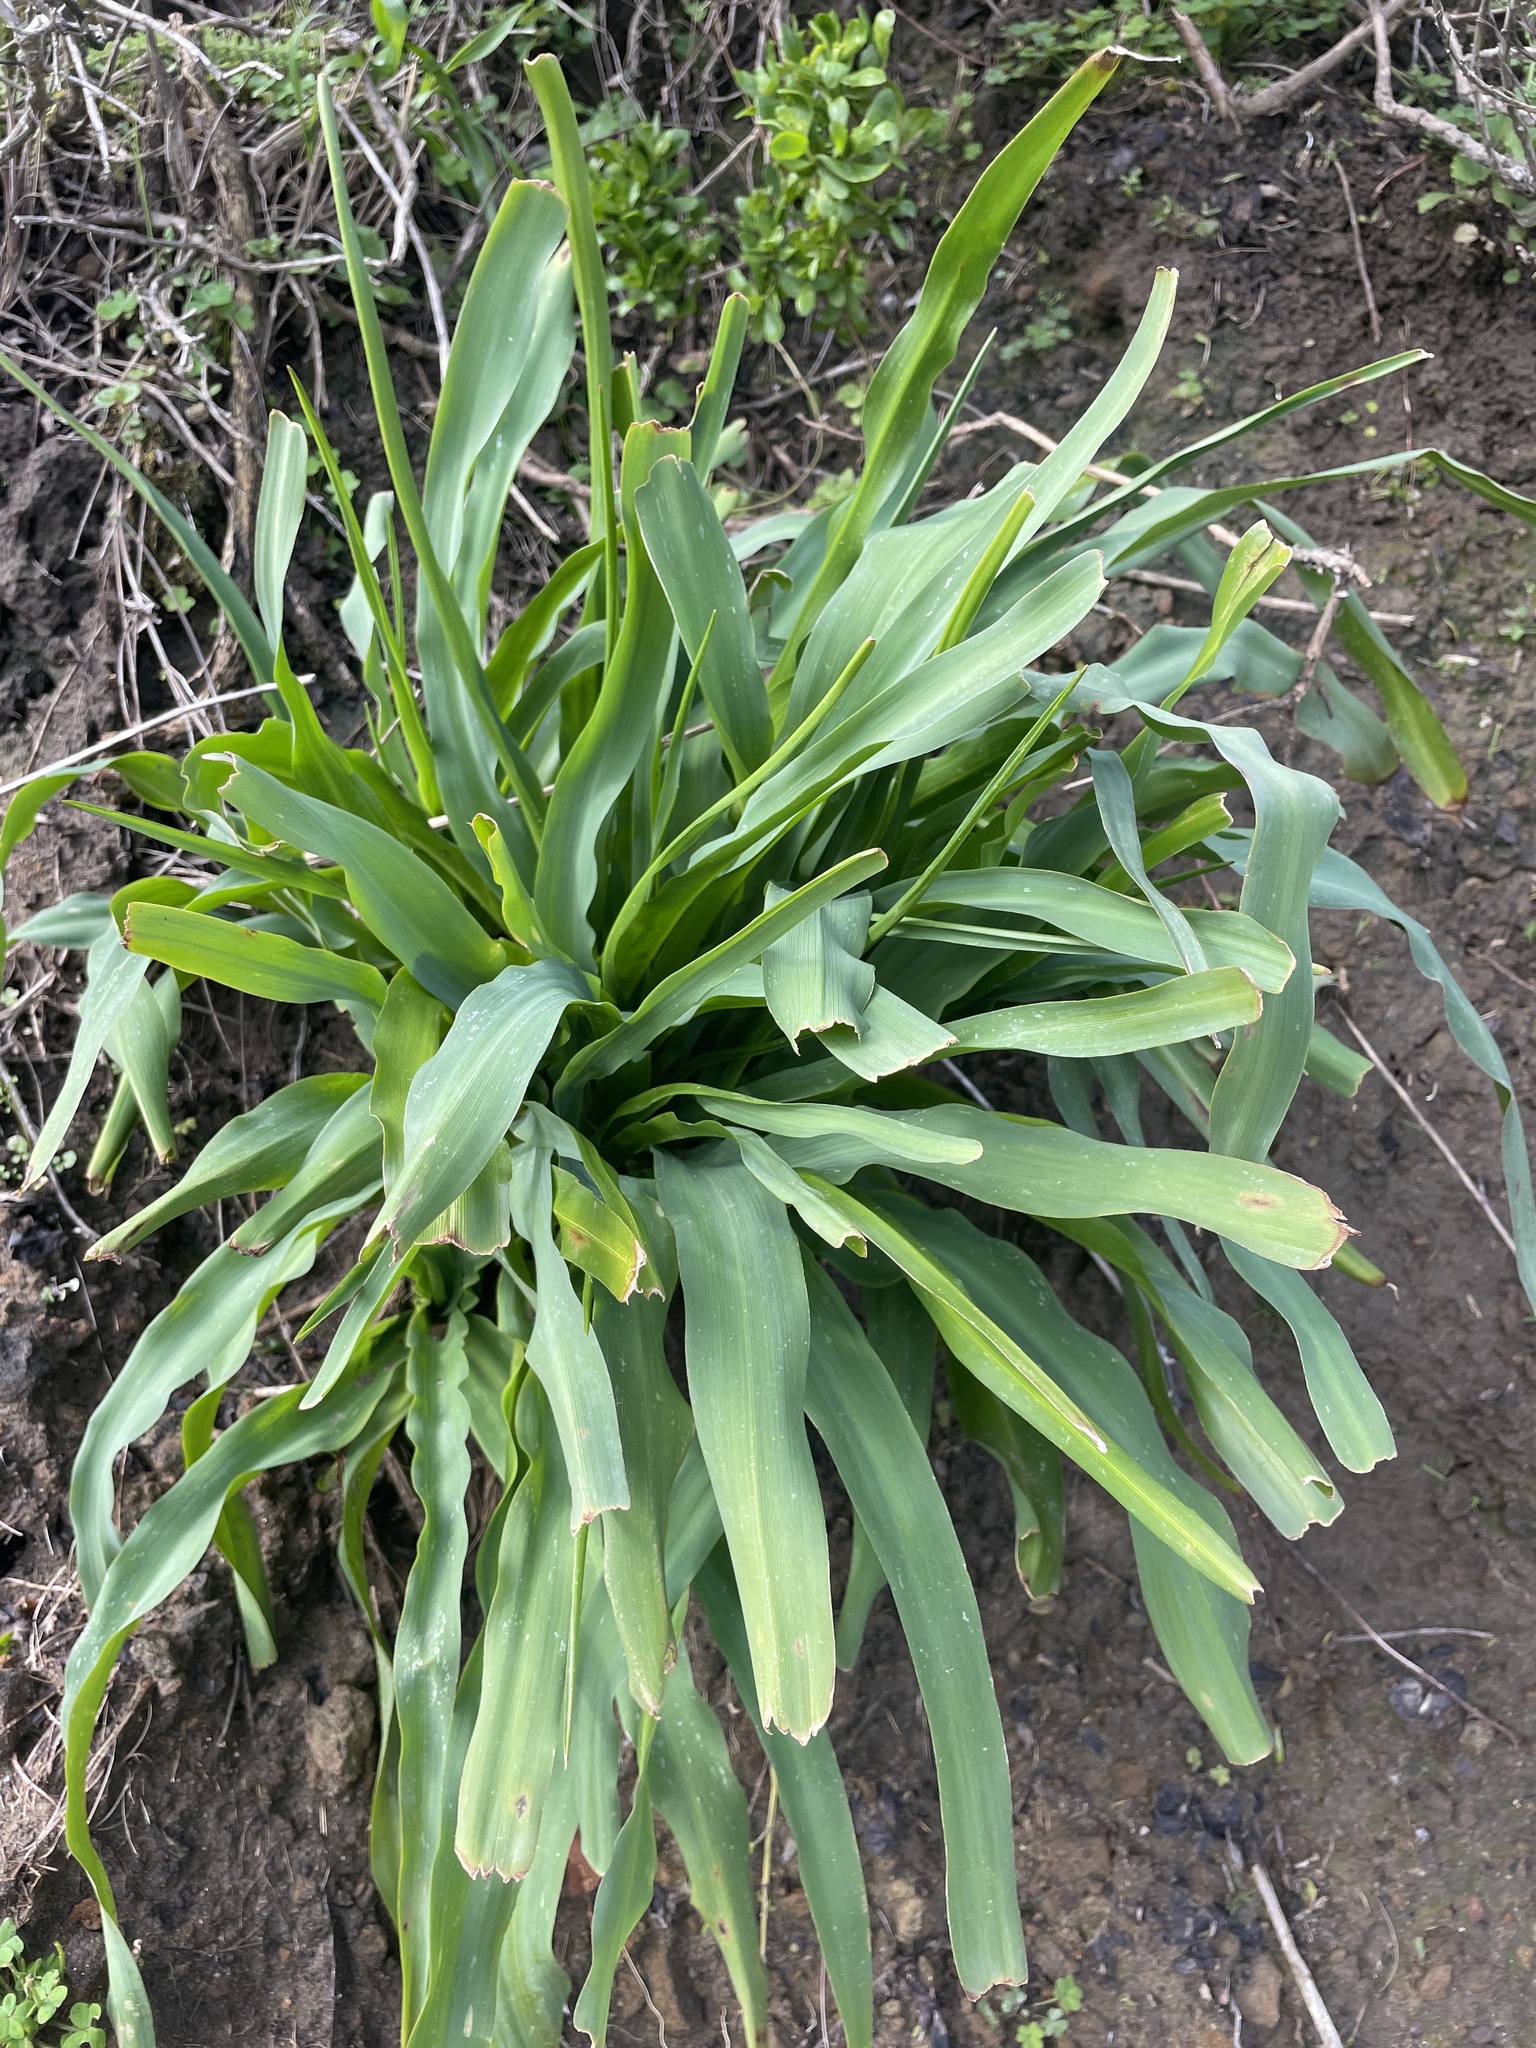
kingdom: Plantae
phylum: Tracheophyta
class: Liliopsida
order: Asparagales
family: Asparagaceae
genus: Chlorogalum
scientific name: Chlorogalum pomeridianum
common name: Amole
